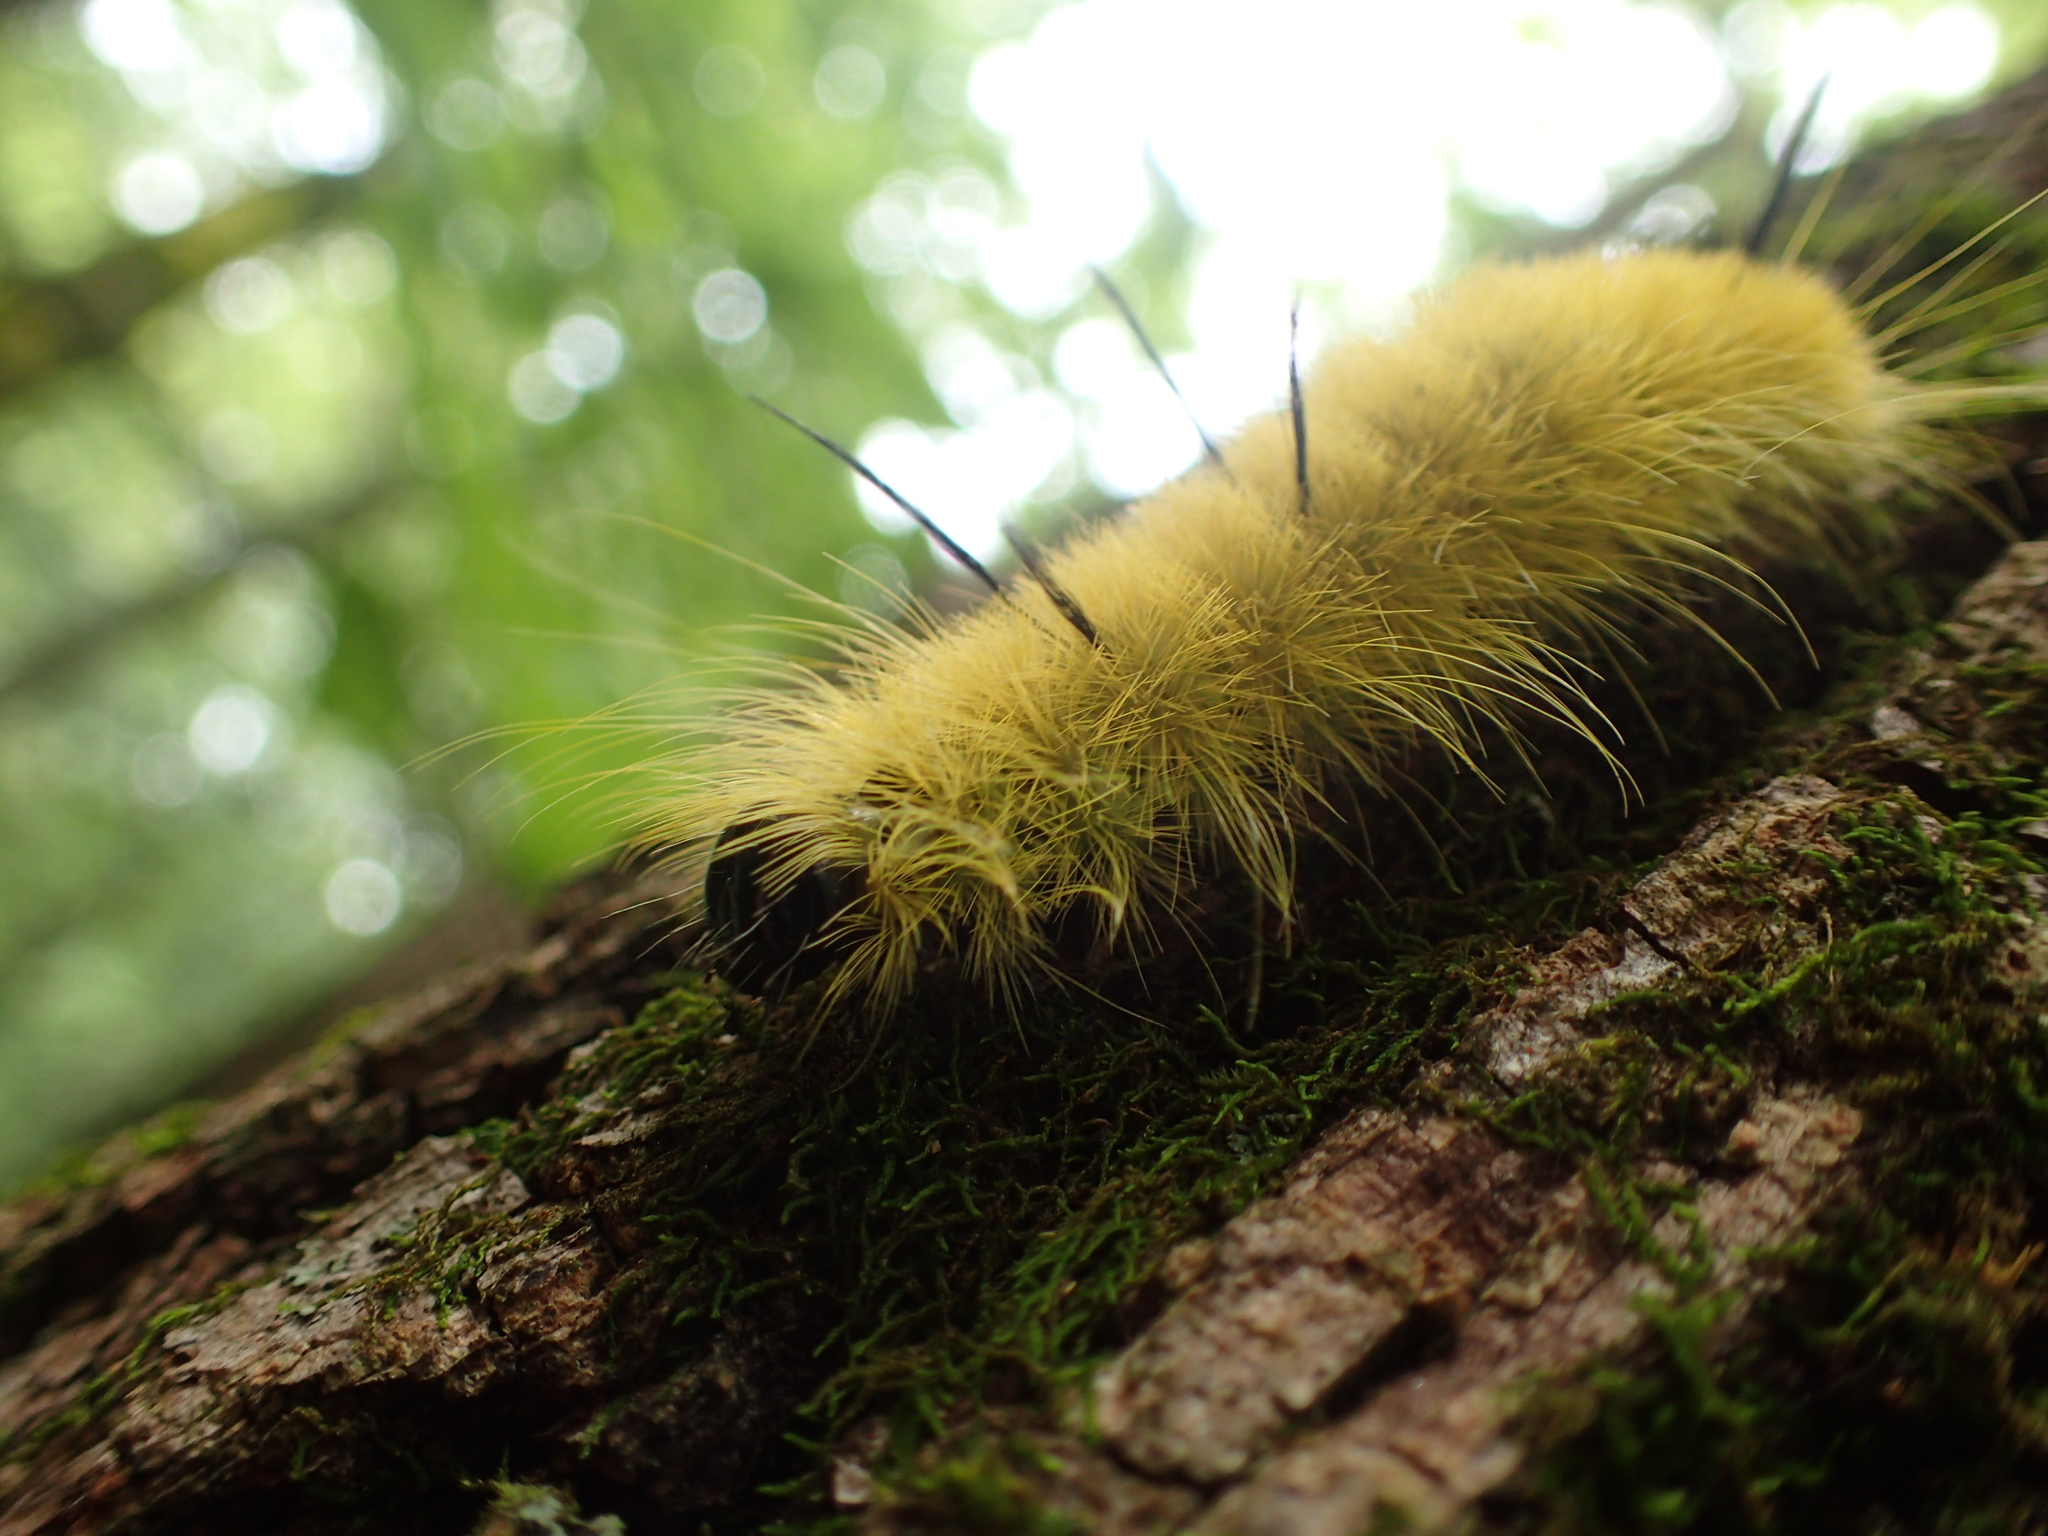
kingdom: Animalia
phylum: Arthropoda
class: Insecta
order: Lepidoptera
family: Noctuidae
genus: Acronicta
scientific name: Acronicta americana
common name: American dagger
